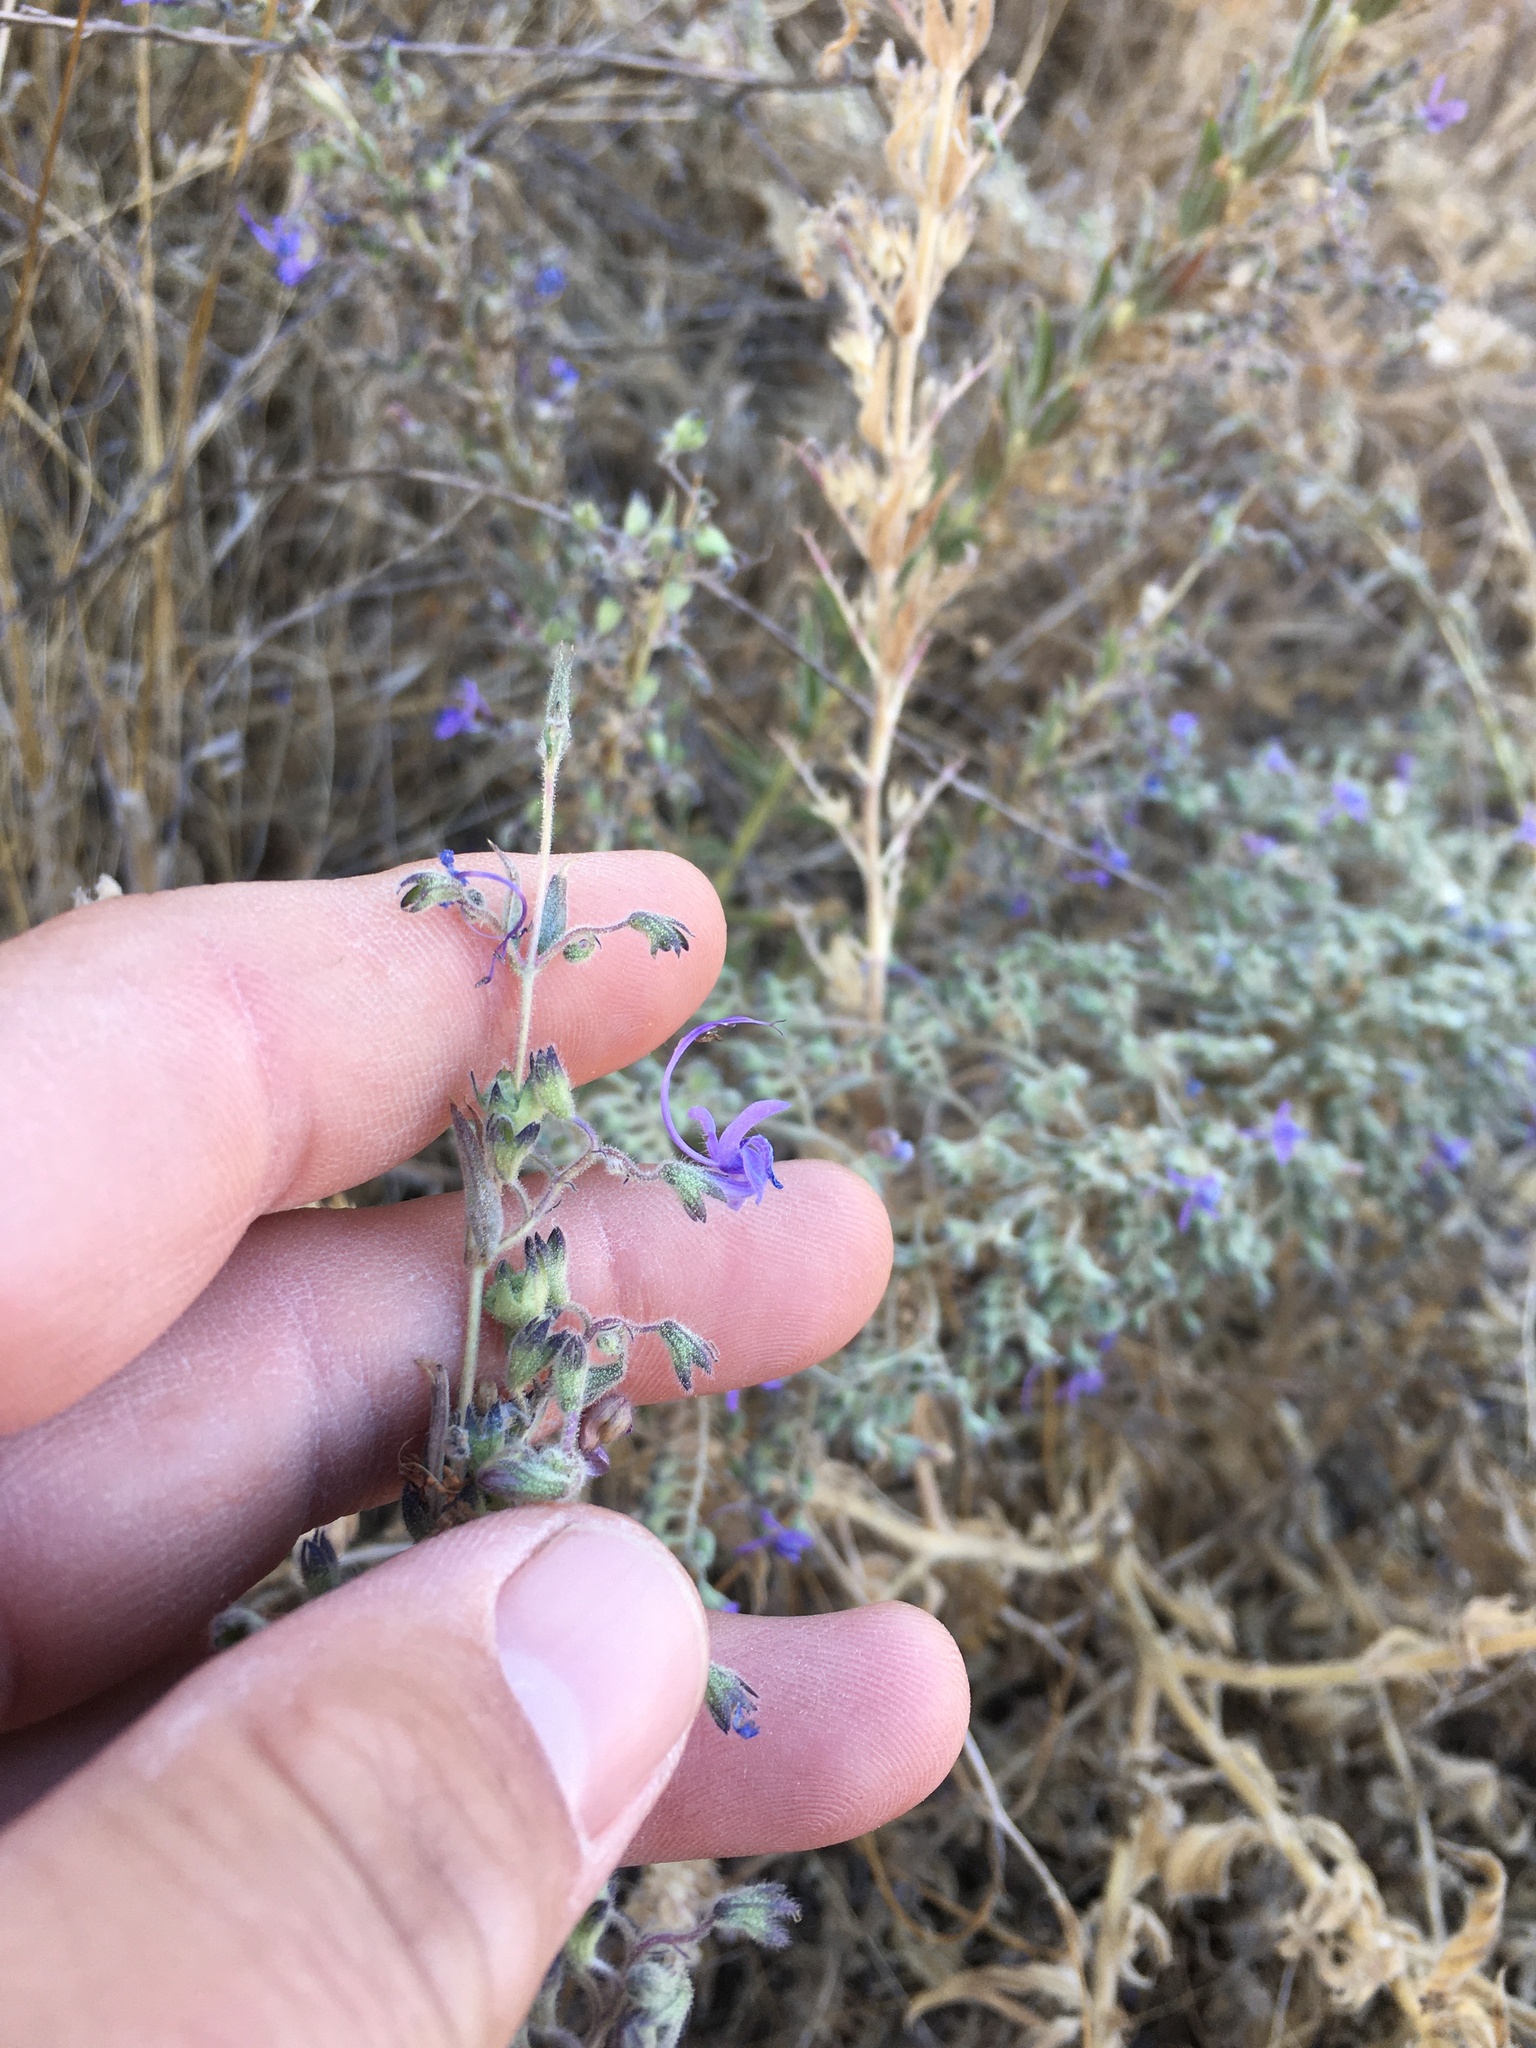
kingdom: Plantae
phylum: Tracheophyta
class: Magnoliopsida
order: Lamiales
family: Lamiaceae
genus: Trichostema
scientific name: Trichostema lanceolatum
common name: Vinegar-weed
